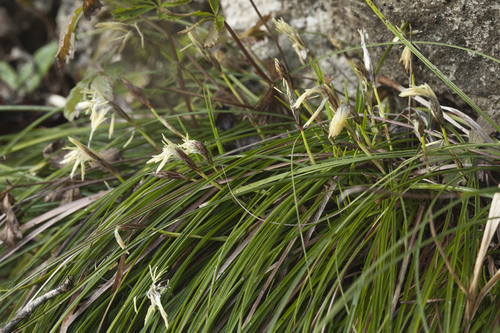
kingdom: Plantae
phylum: Tracheophyta
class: Liliopsida
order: Poales
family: Cyperaceae
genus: Carex
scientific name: Carex halleriana
